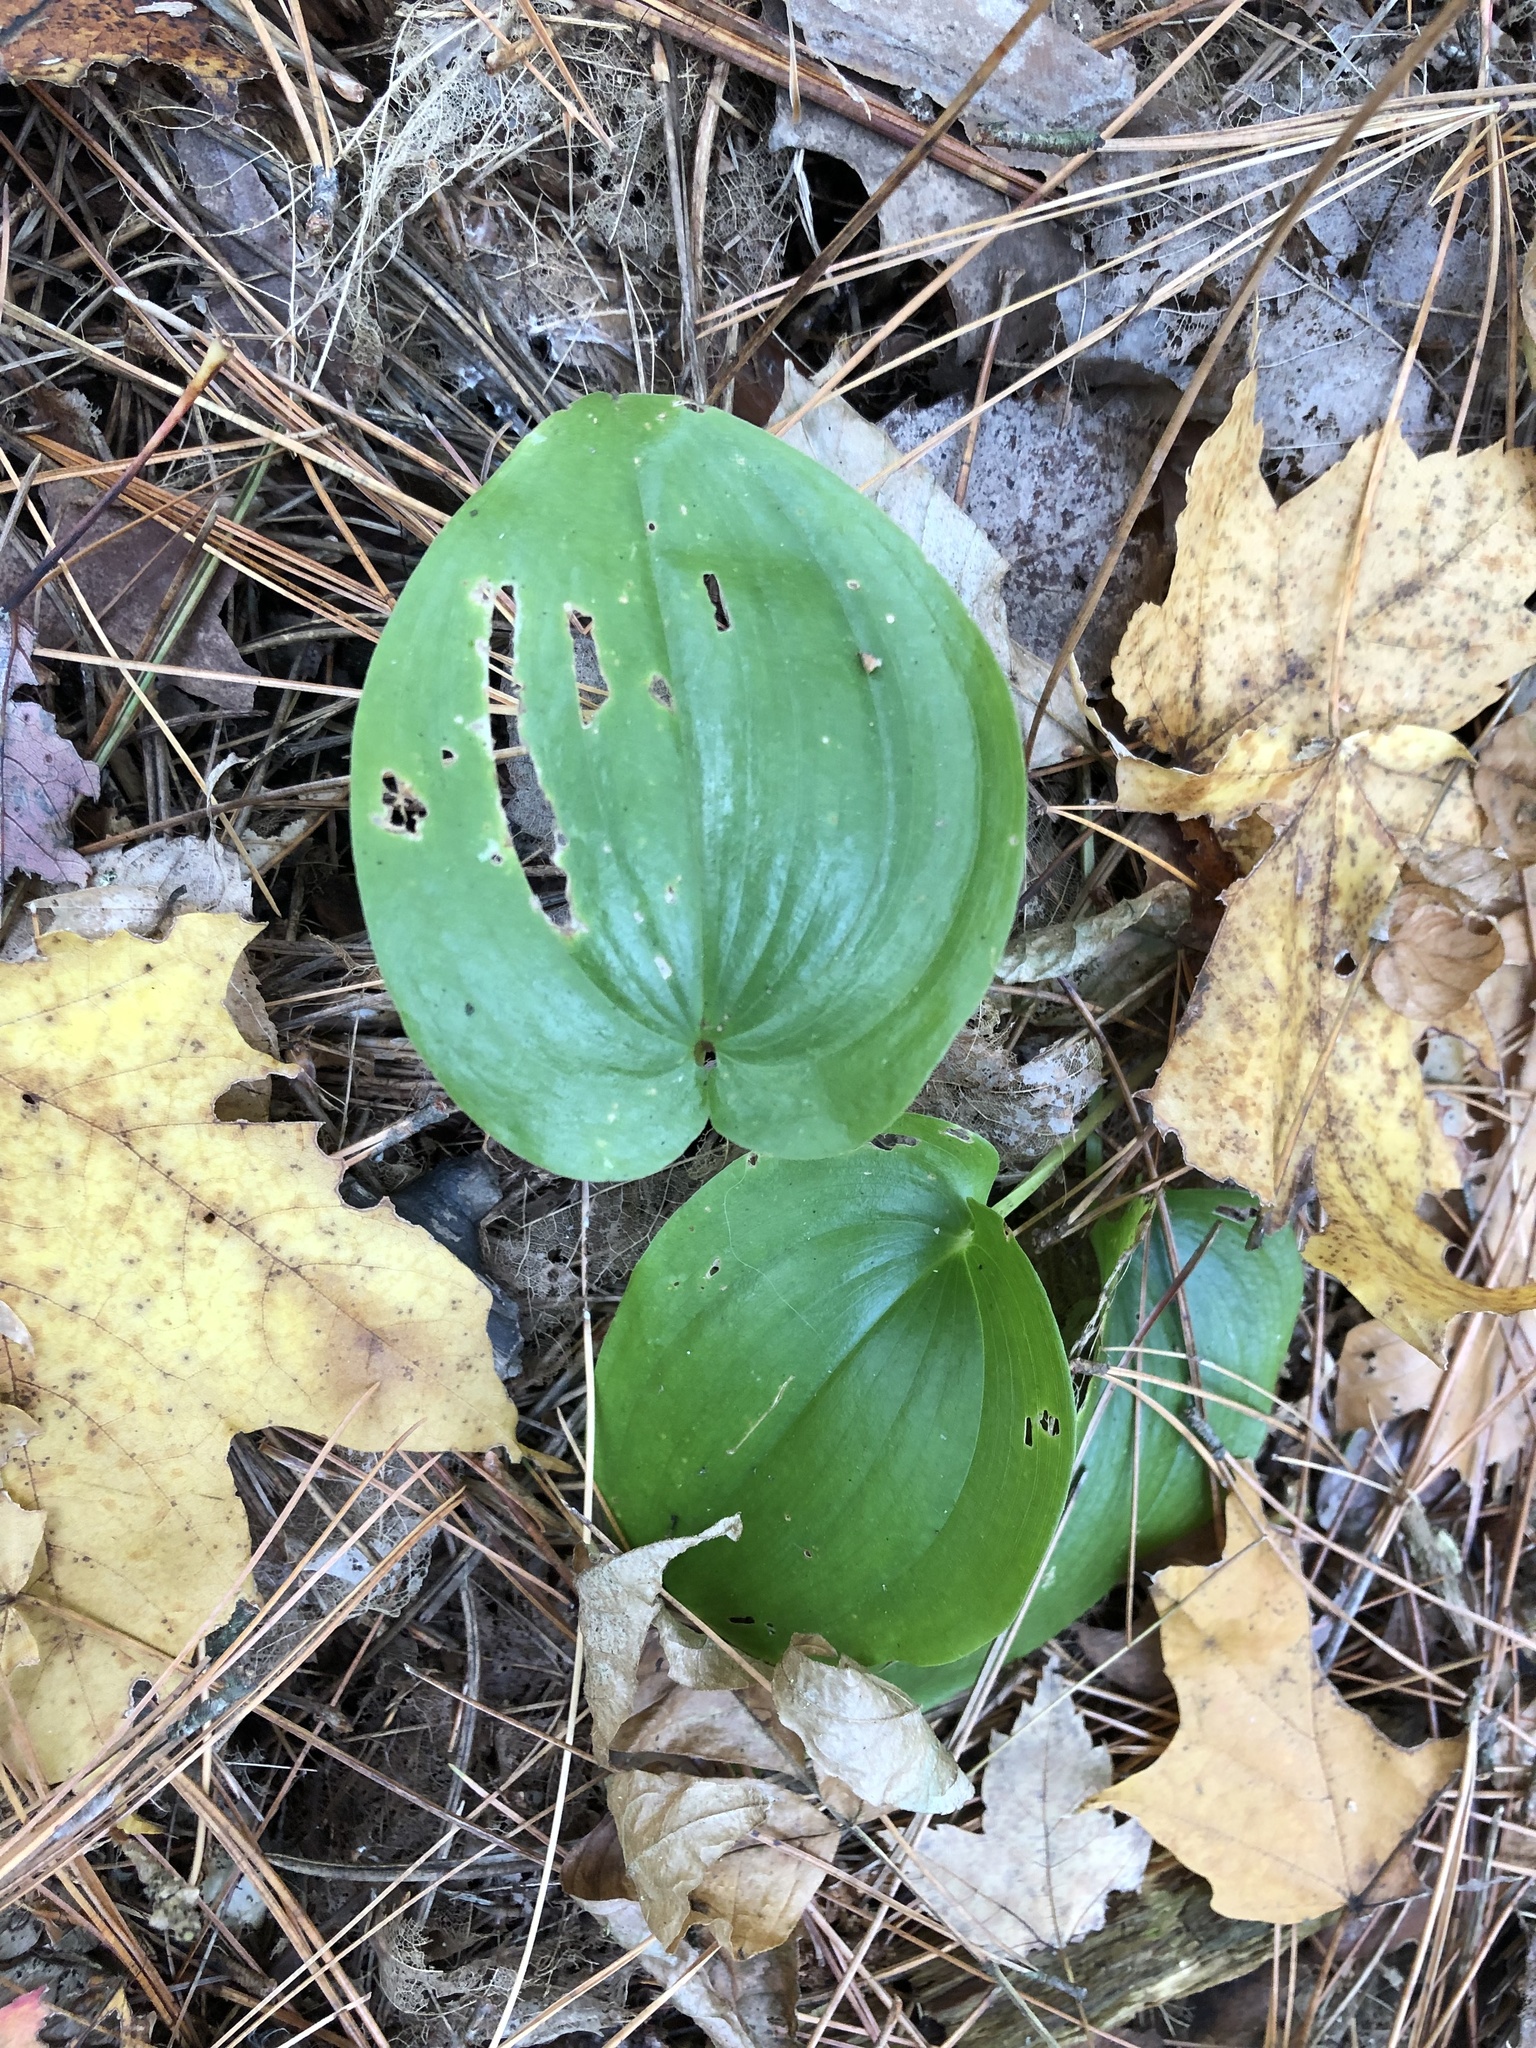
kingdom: Plantae
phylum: Tracheophyta
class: Liliopsida
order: Asparagales
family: Asparagaceae
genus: Maianthemum
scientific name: Maianthemum canadense
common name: False lily-of-the-valley
